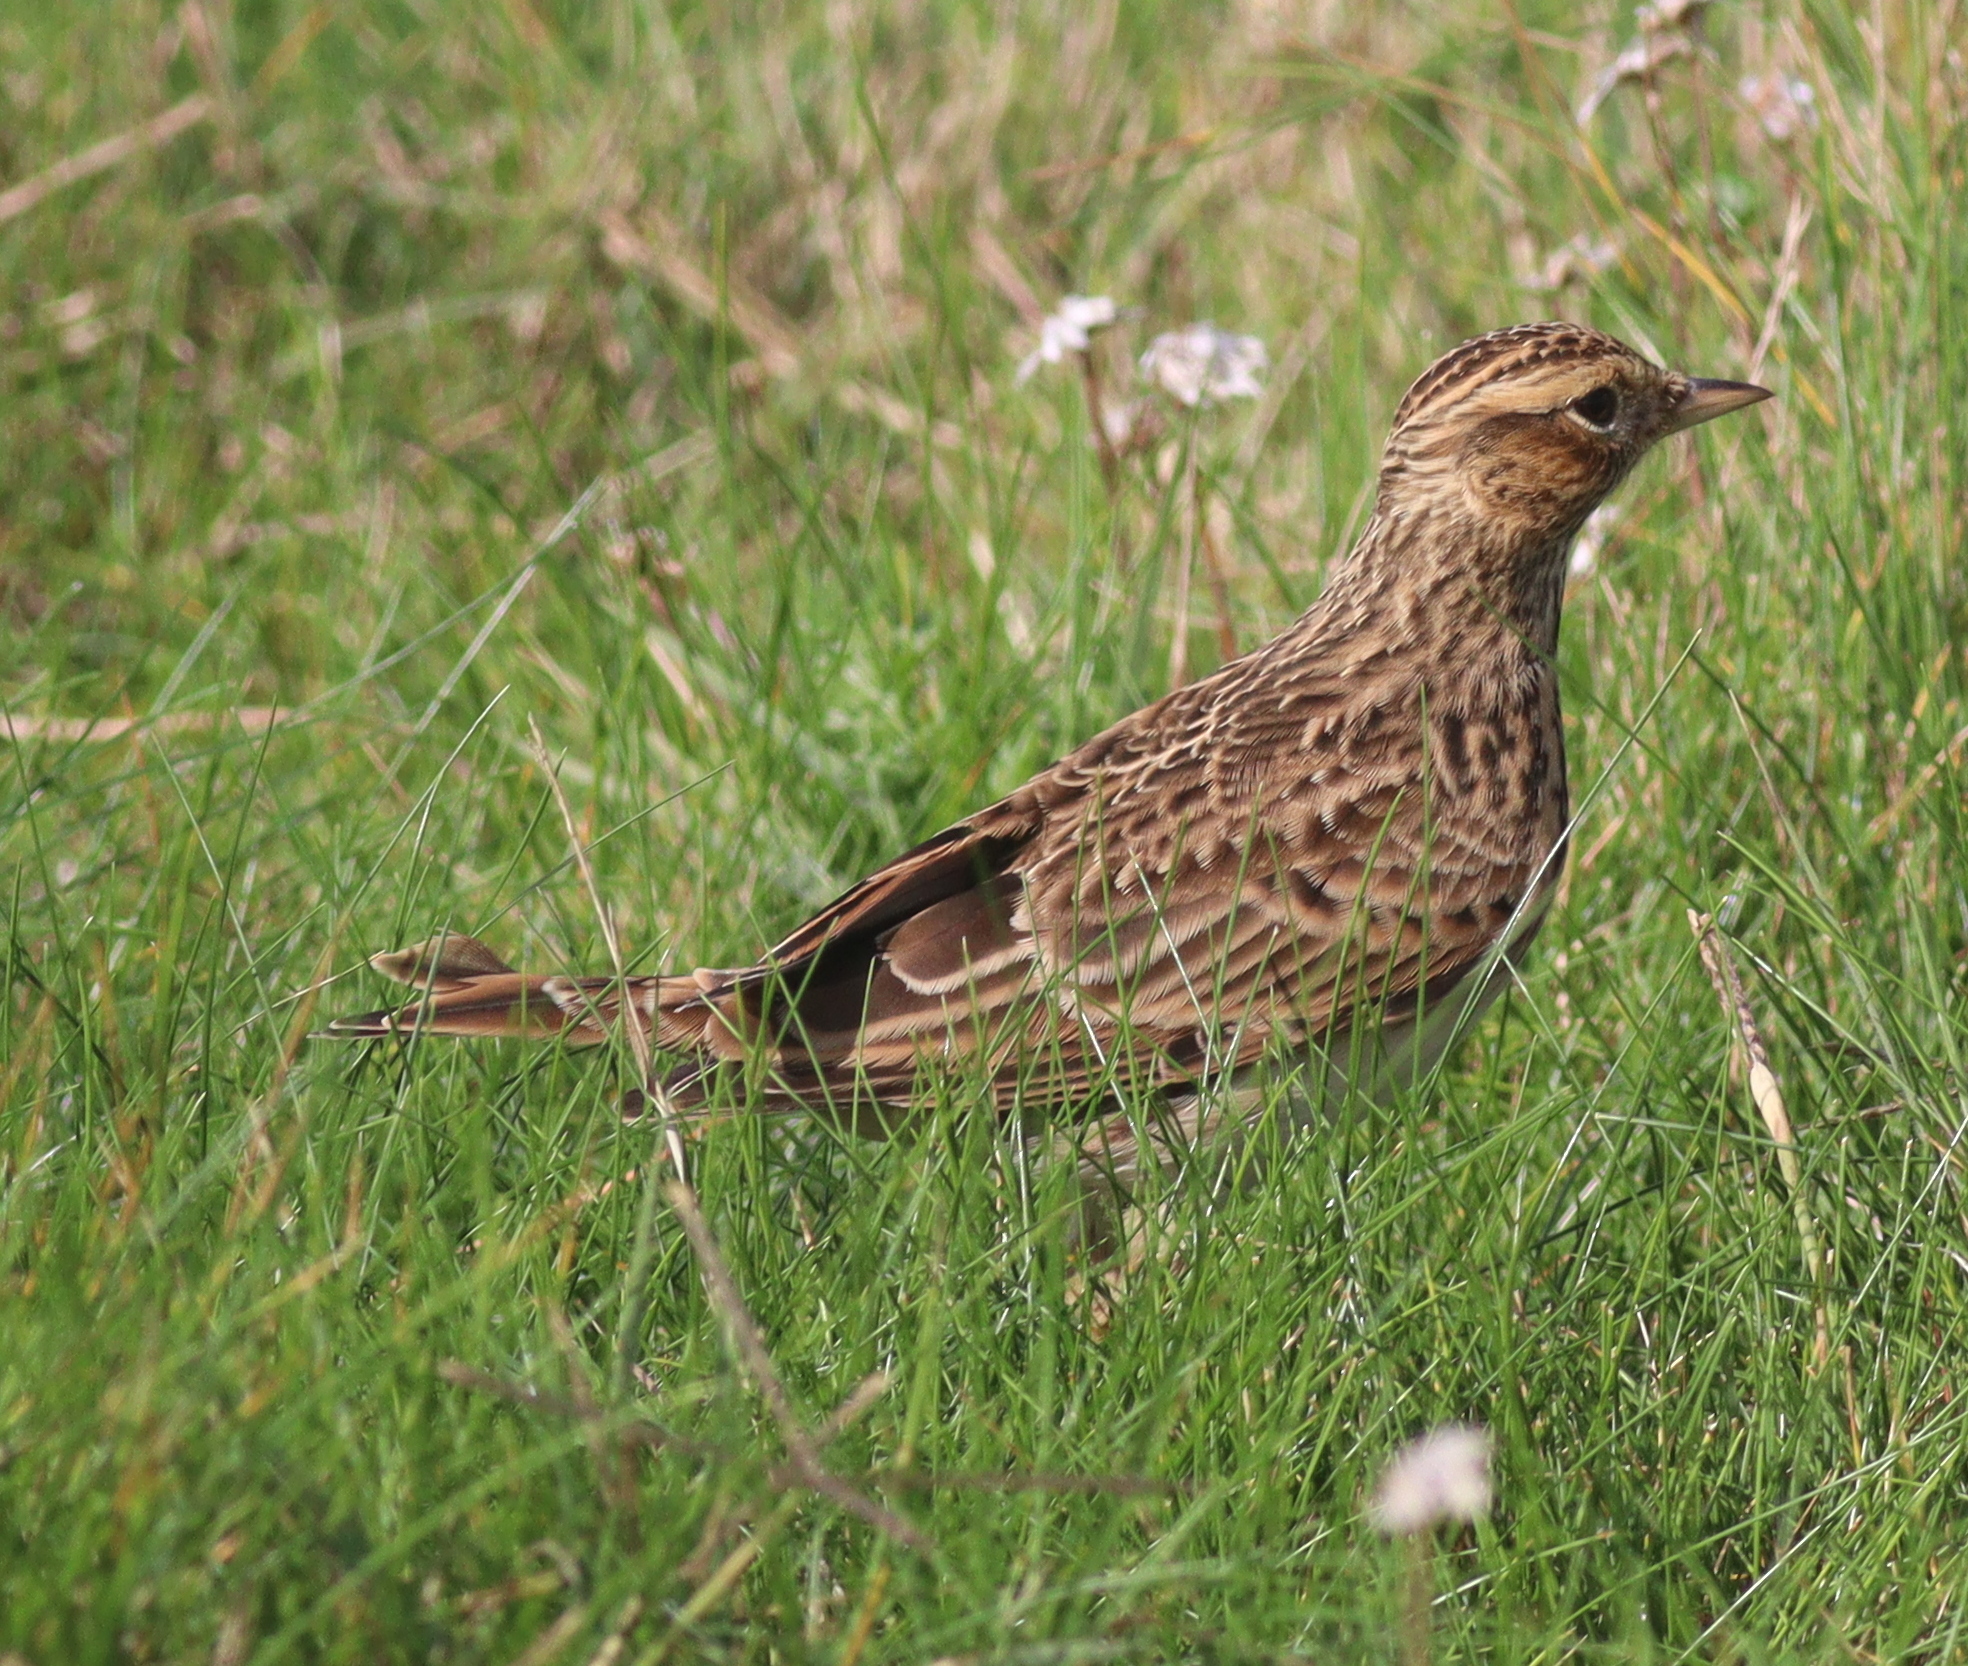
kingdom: Animalia
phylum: Chordata
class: Aves
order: Passeriformes
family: Alaudidae
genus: Alauda
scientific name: Alauda arvensis
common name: Eurasian skylark
